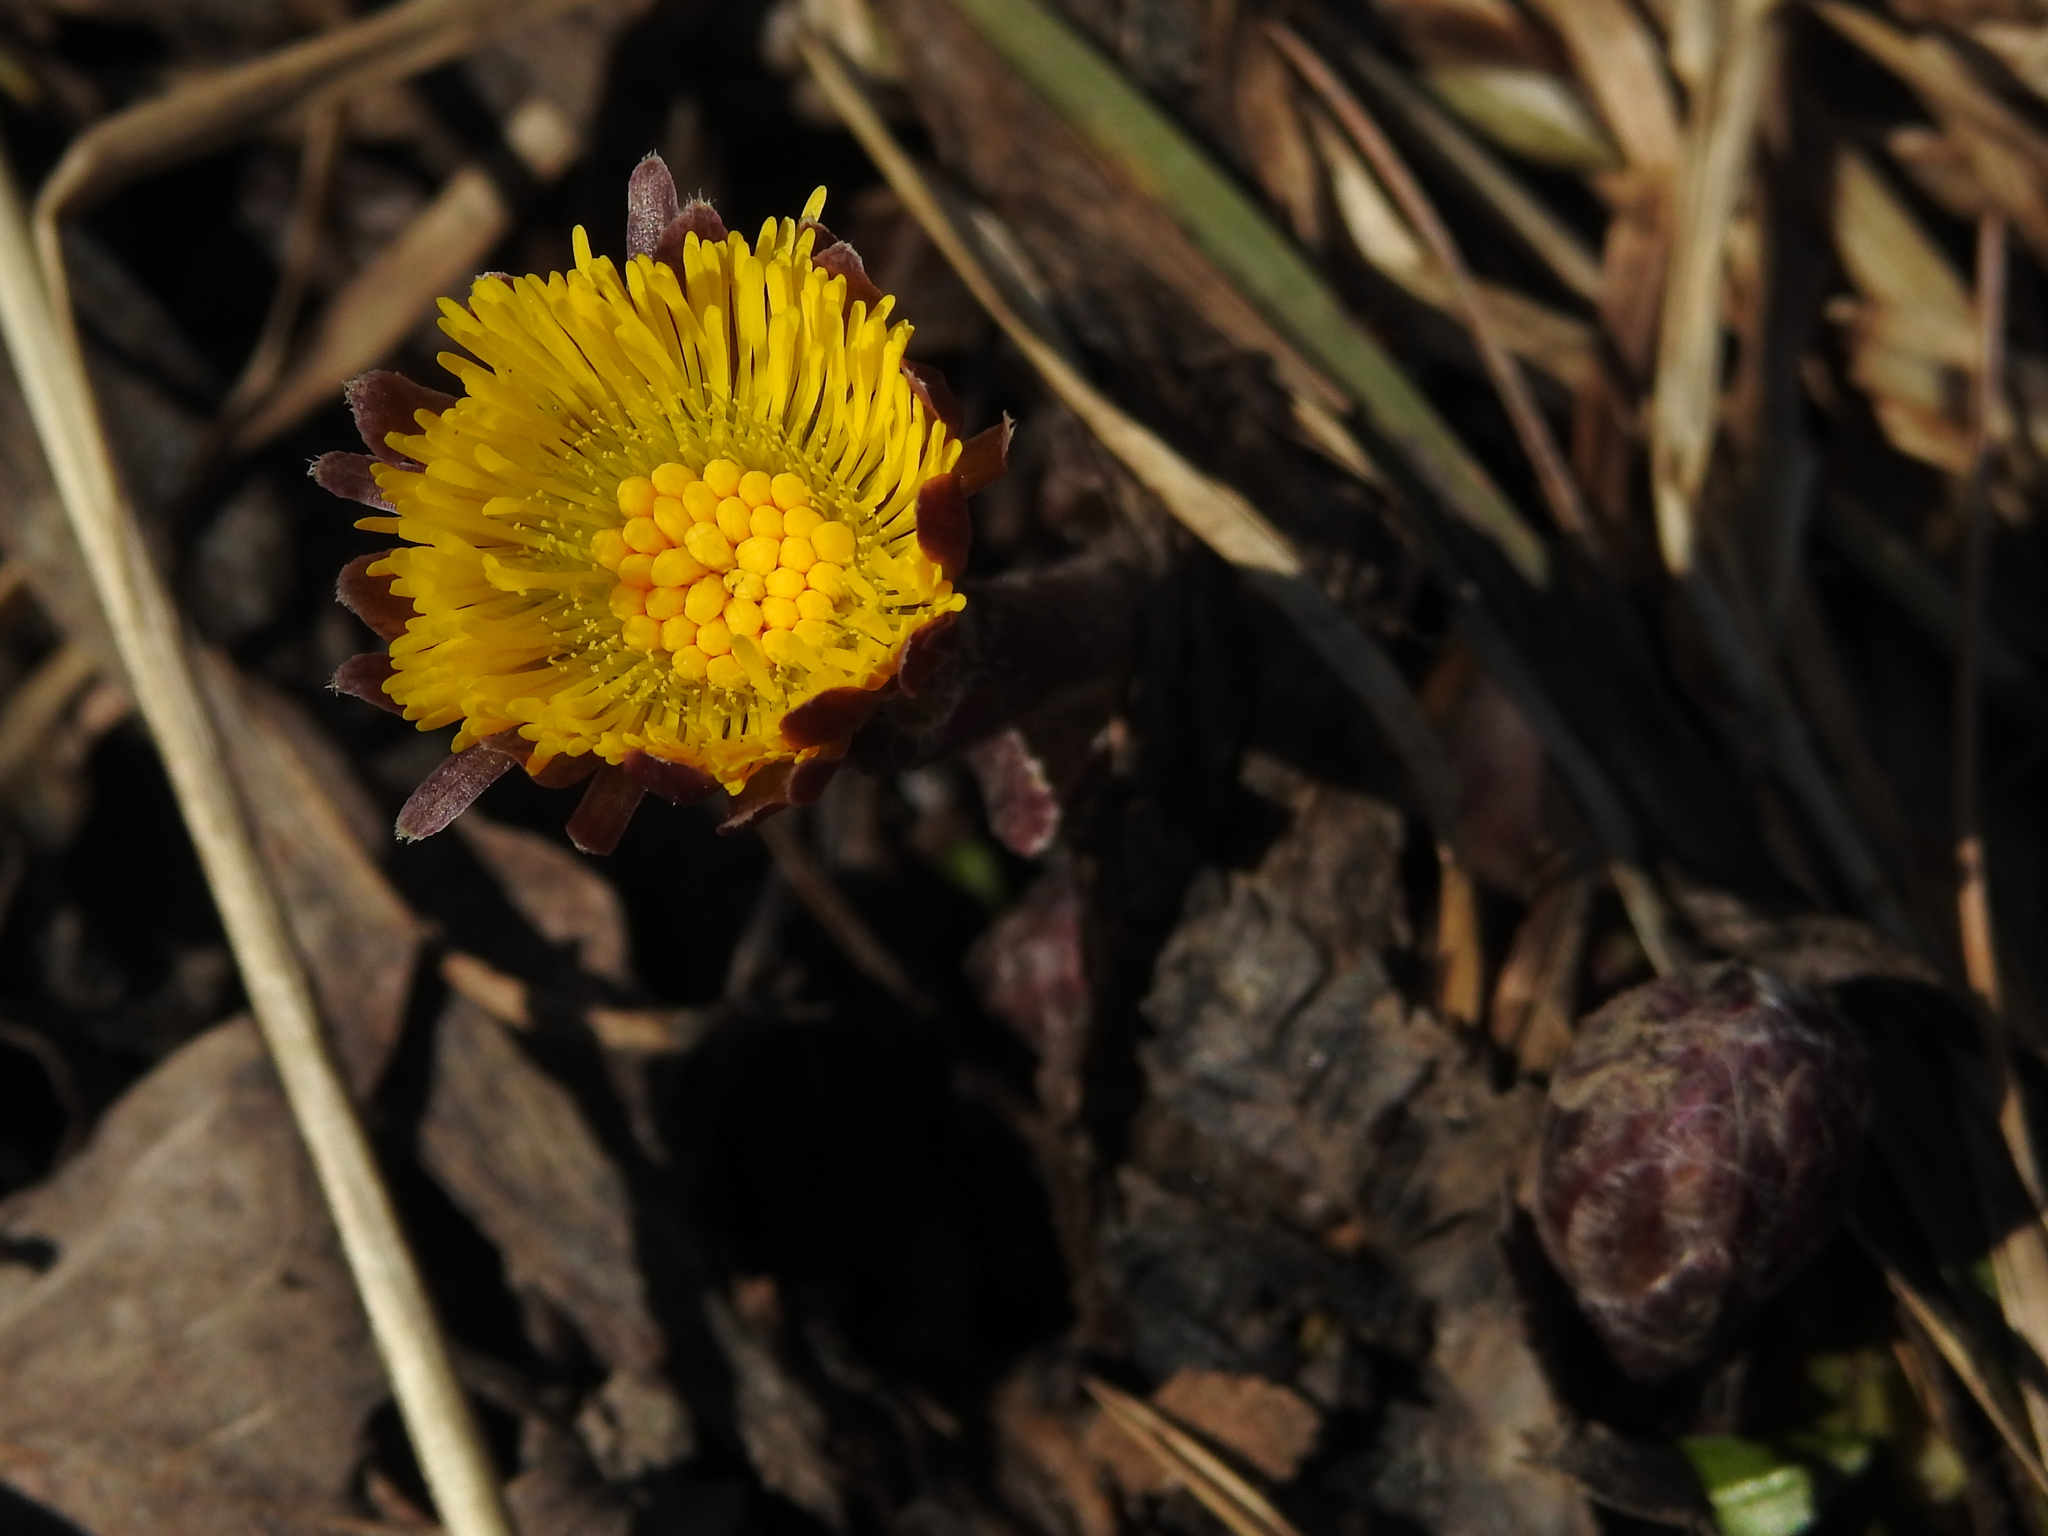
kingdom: Plantae
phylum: Tracheophyta
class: Magnoliopsida
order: Asterales
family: Asteraceae
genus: Tussilago
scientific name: Tussilago farfara
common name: Coltsfoot
